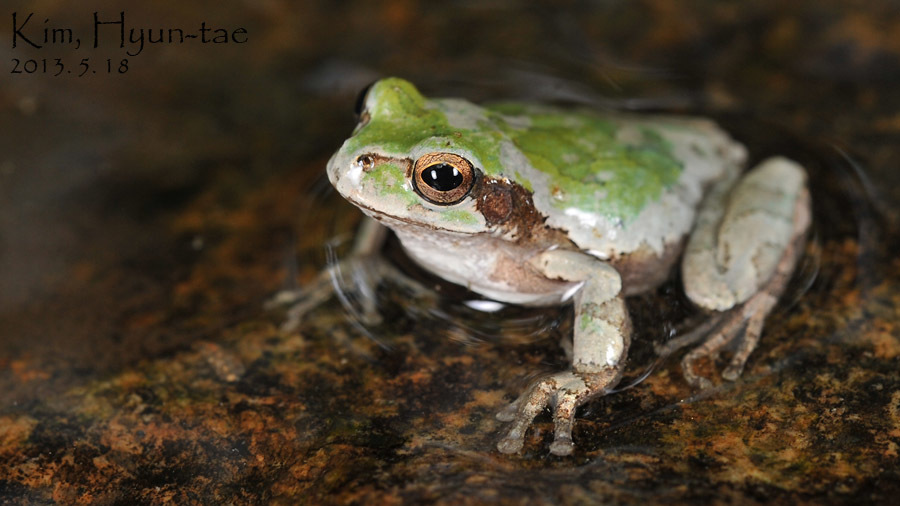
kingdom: Animalia
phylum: Chordata
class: Amphibia
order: Anura
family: Hylidae
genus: Dryophytes
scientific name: Dryophytes japonicus
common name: Japanese treefrog
